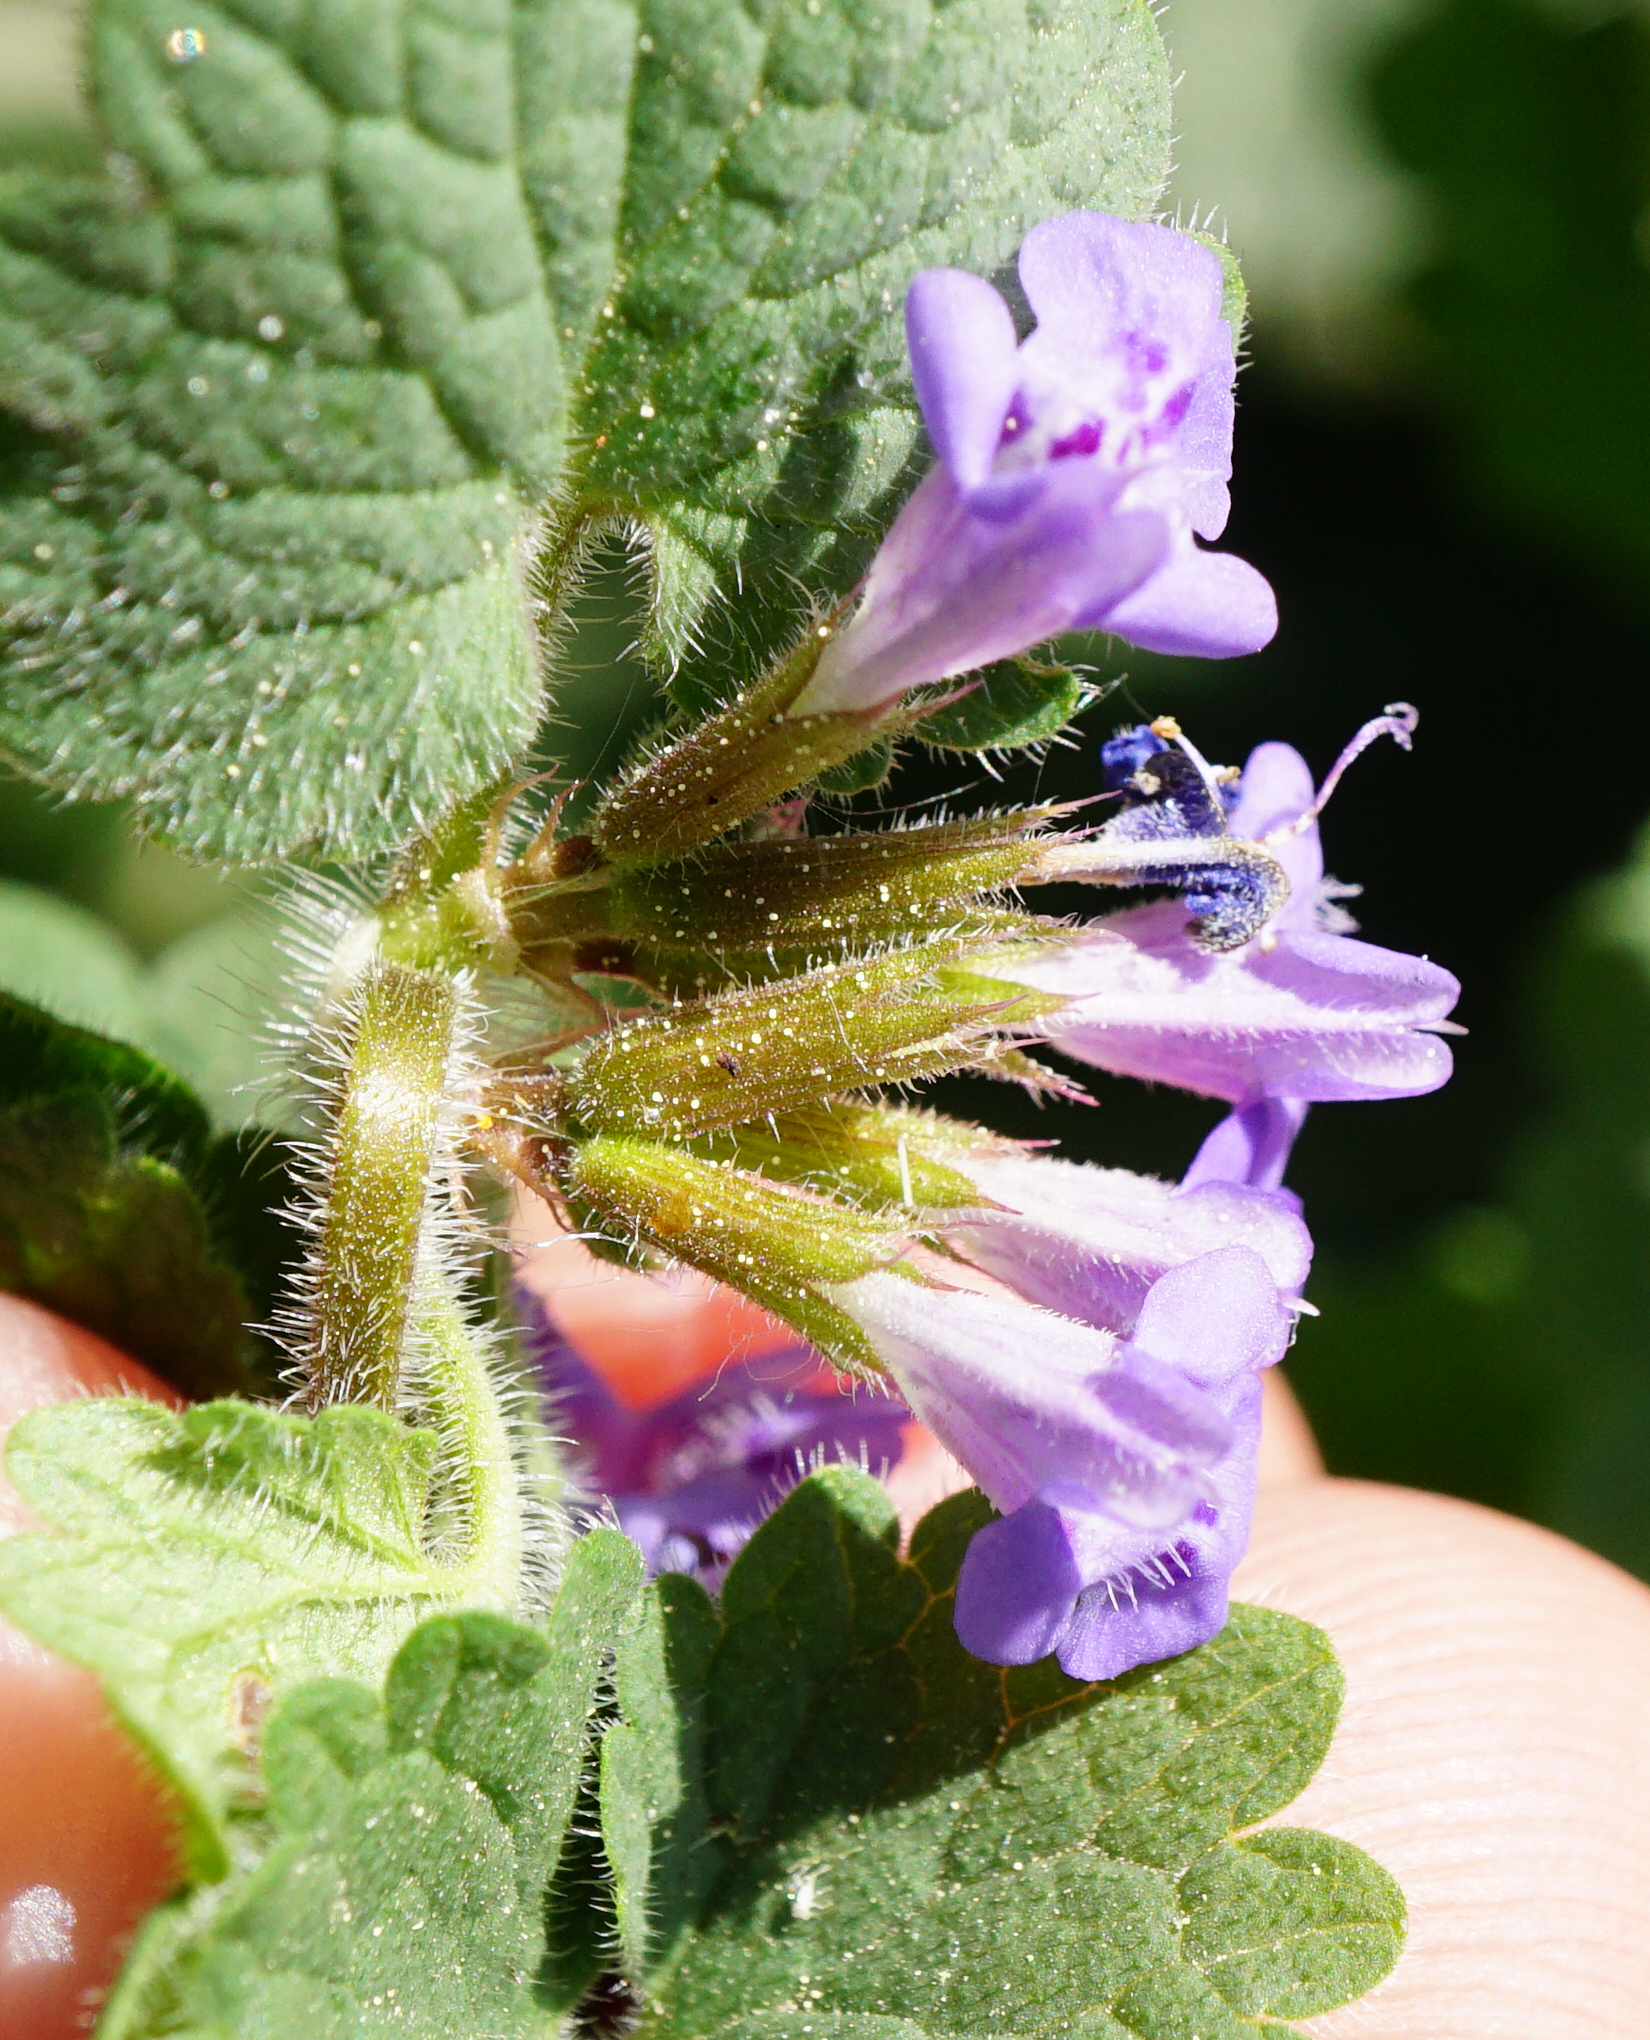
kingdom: Plantae
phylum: Tracheophyta
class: Magnoliopsida
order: Lamiales
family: Lamiaceae
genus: Glechoma
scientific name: Glechoma hederacea
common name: Ground ivy
